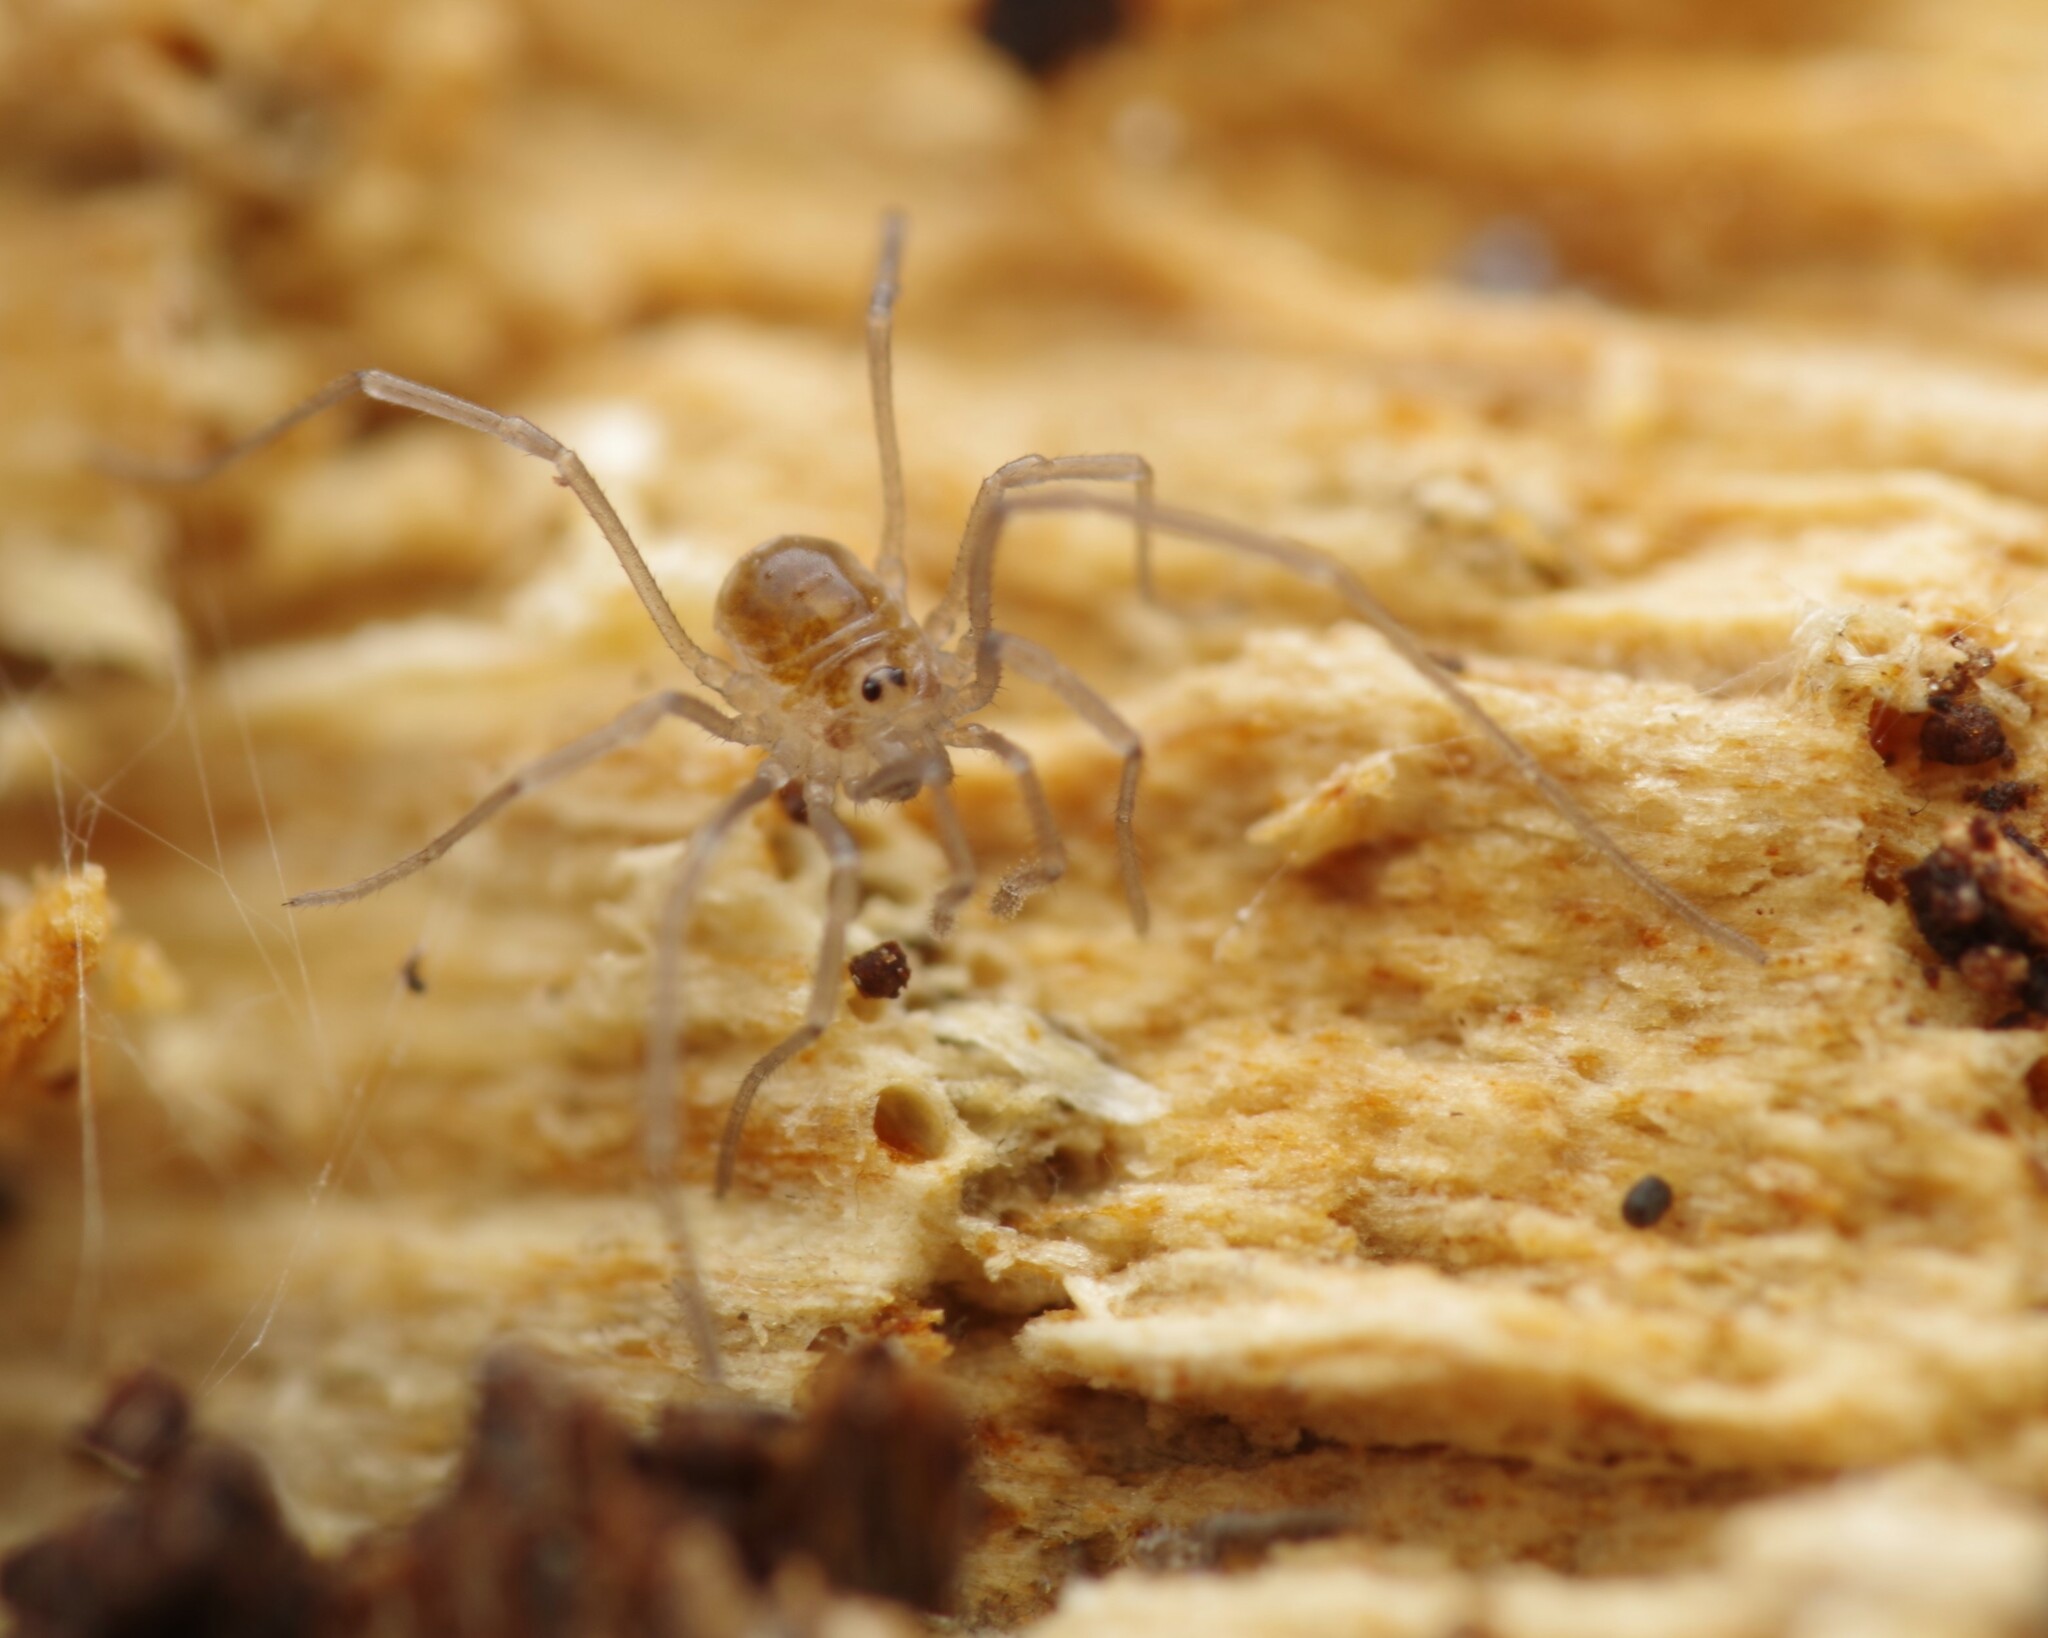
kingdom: Animalia
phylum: Arthropoda
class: Arachnida
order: Opiliones
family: Nemastomatidae
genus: Mitostoma
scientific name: Mitostoma chrysomelas
